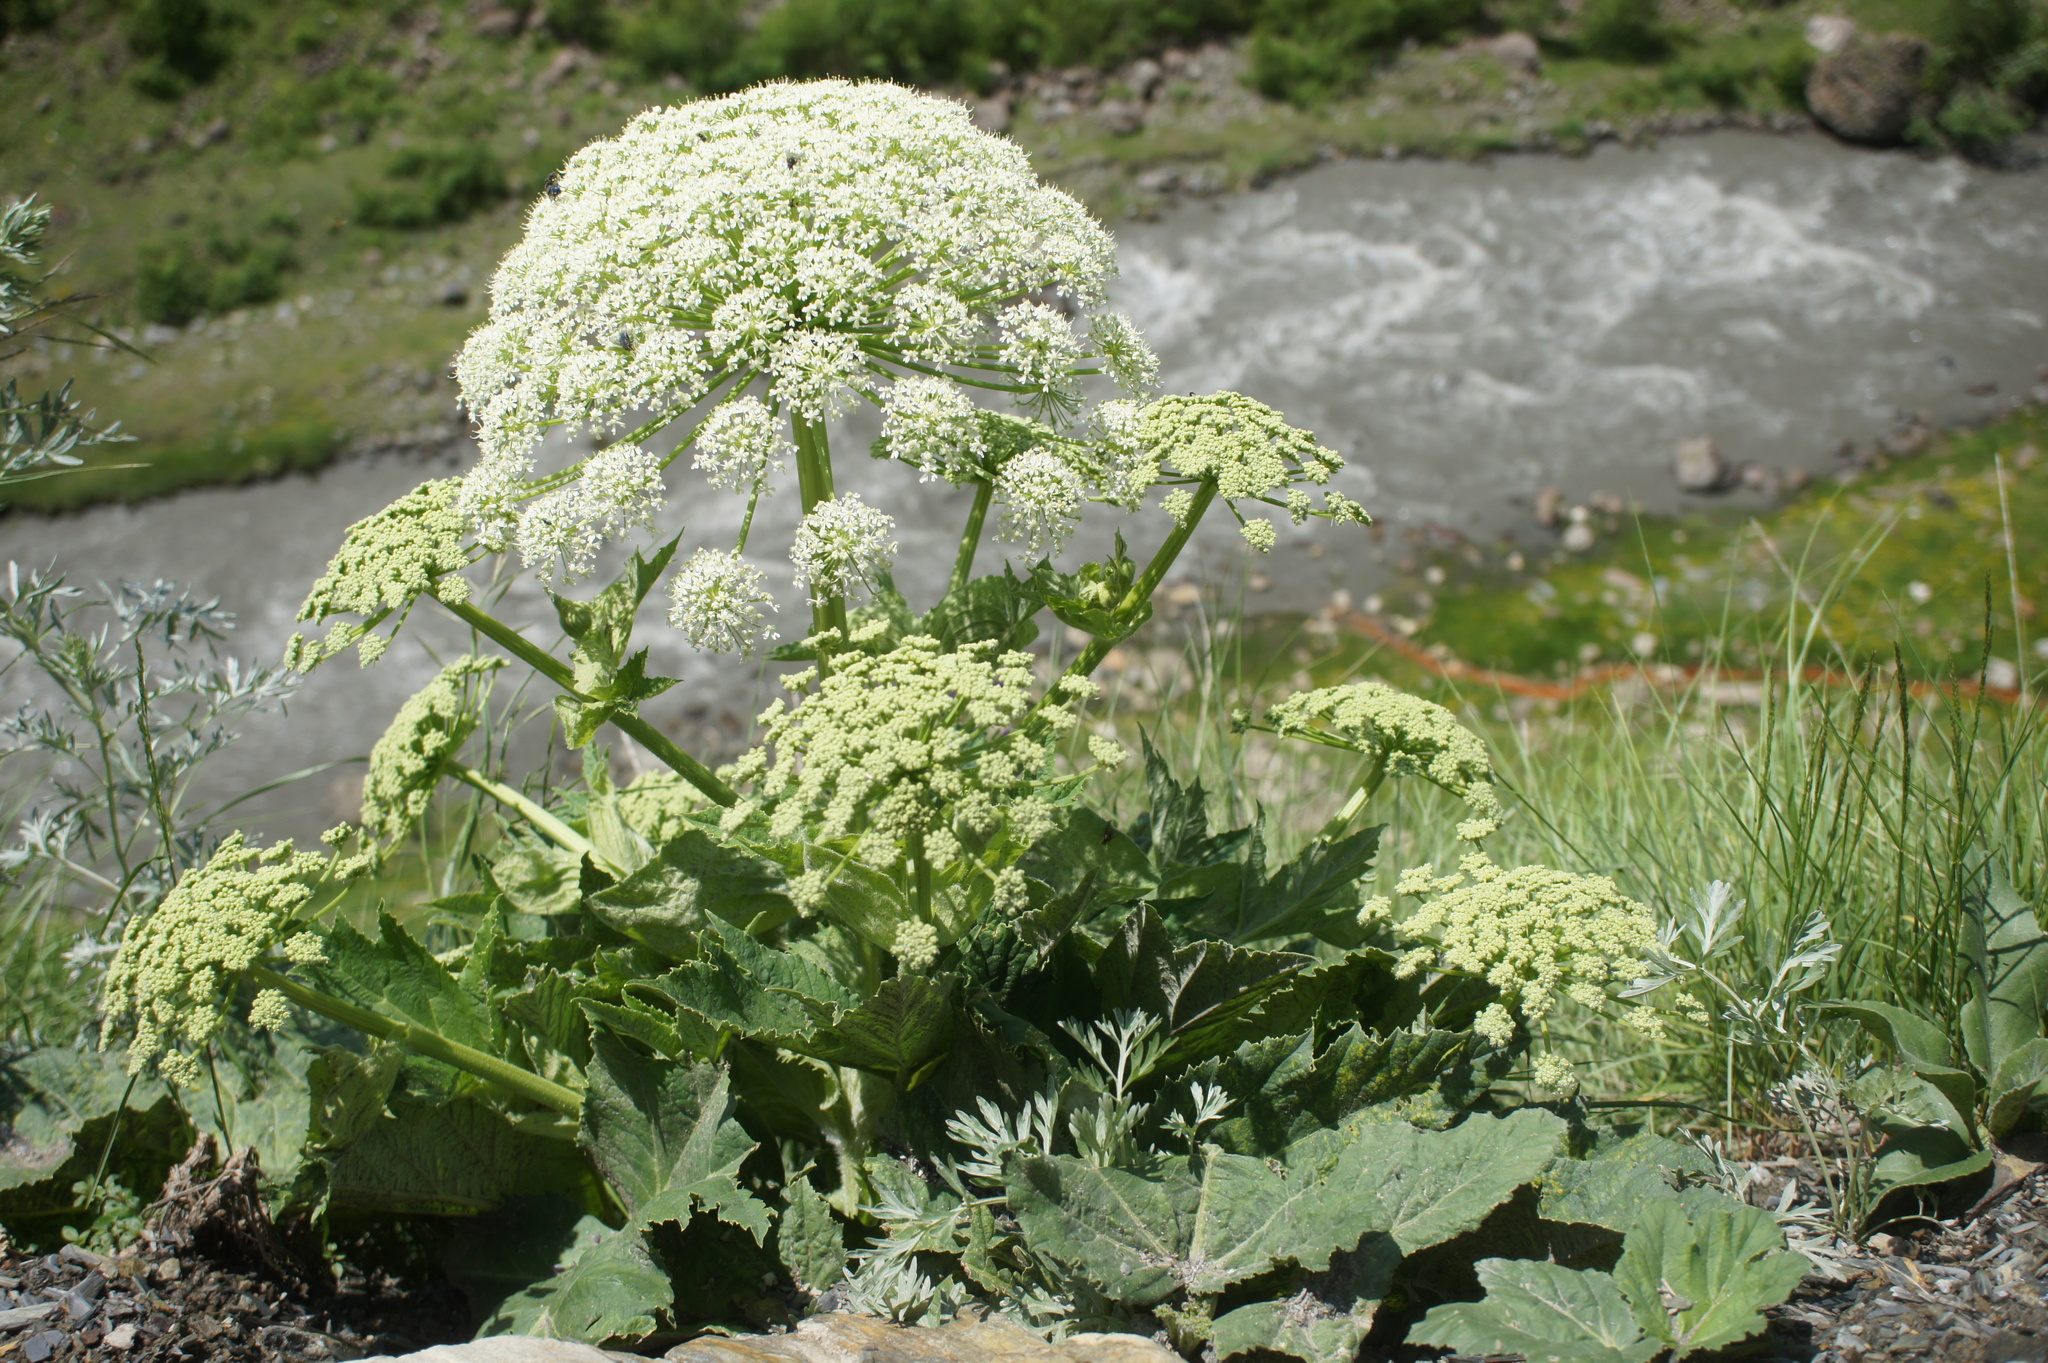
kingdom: Plantae
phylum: Tracheophyta
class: Magnoliopsida
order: Apiales
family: Apiaceae
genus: Heracleum
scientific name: Heracleum sosnowskyi
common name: Sosnowsky's hogweed
